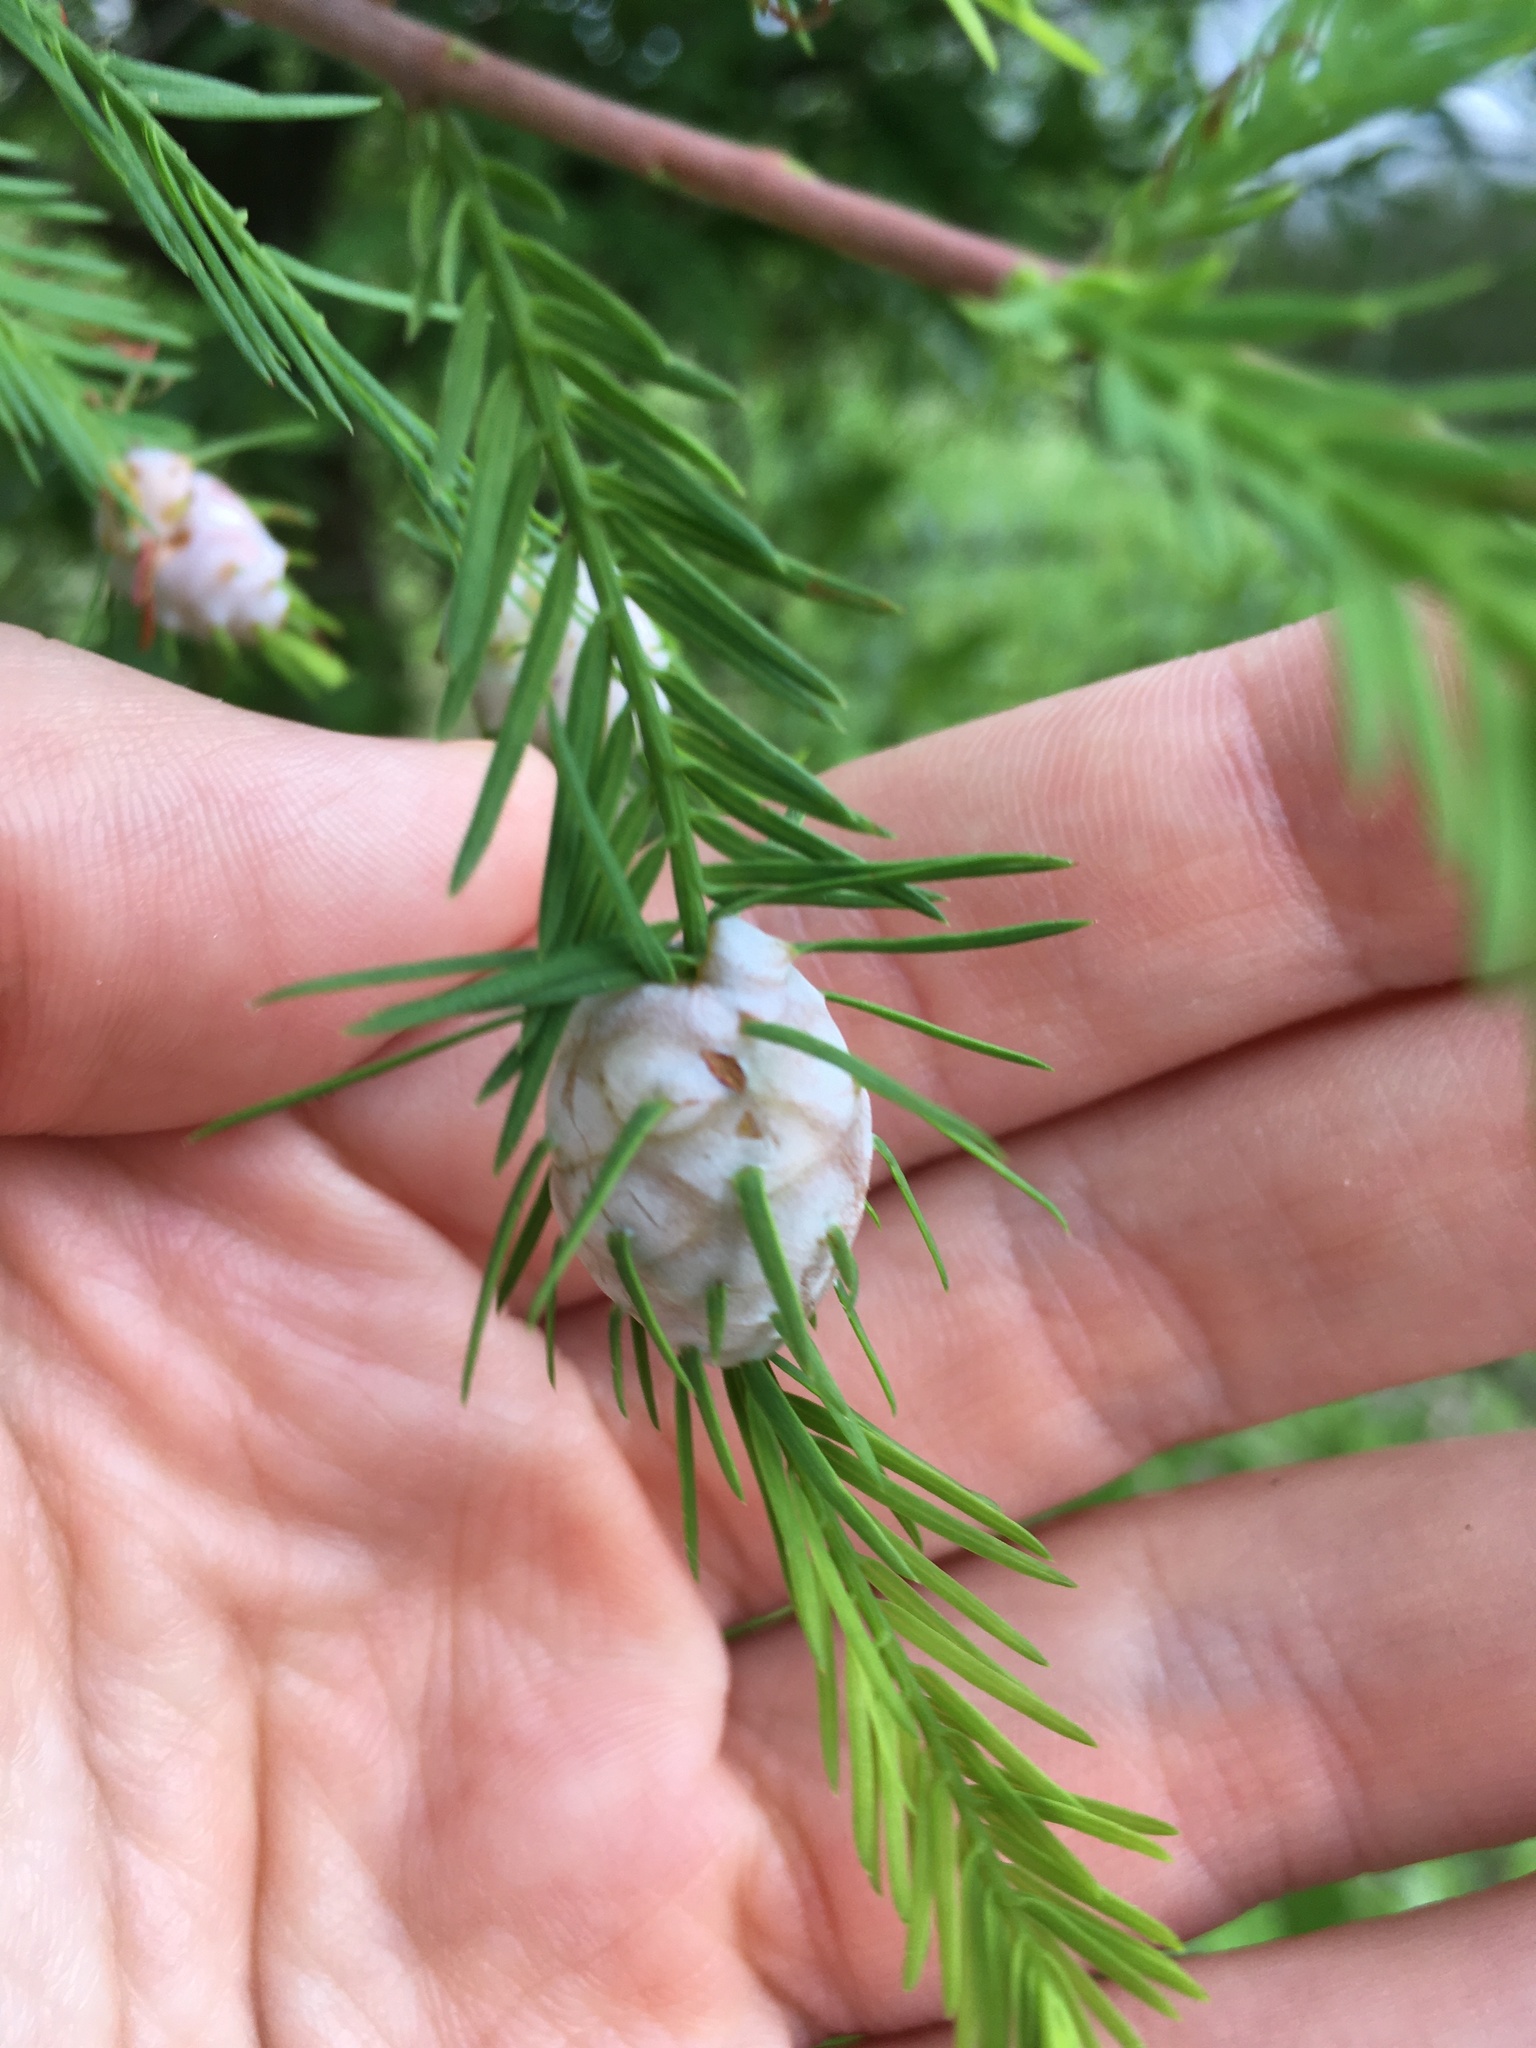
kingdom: Animalia
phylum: Arthropoda
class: Insecta
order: Diptera
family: Cecidomyiidae
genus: Taxodiomyia
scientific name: Taxodiomyia cupressiananassa
